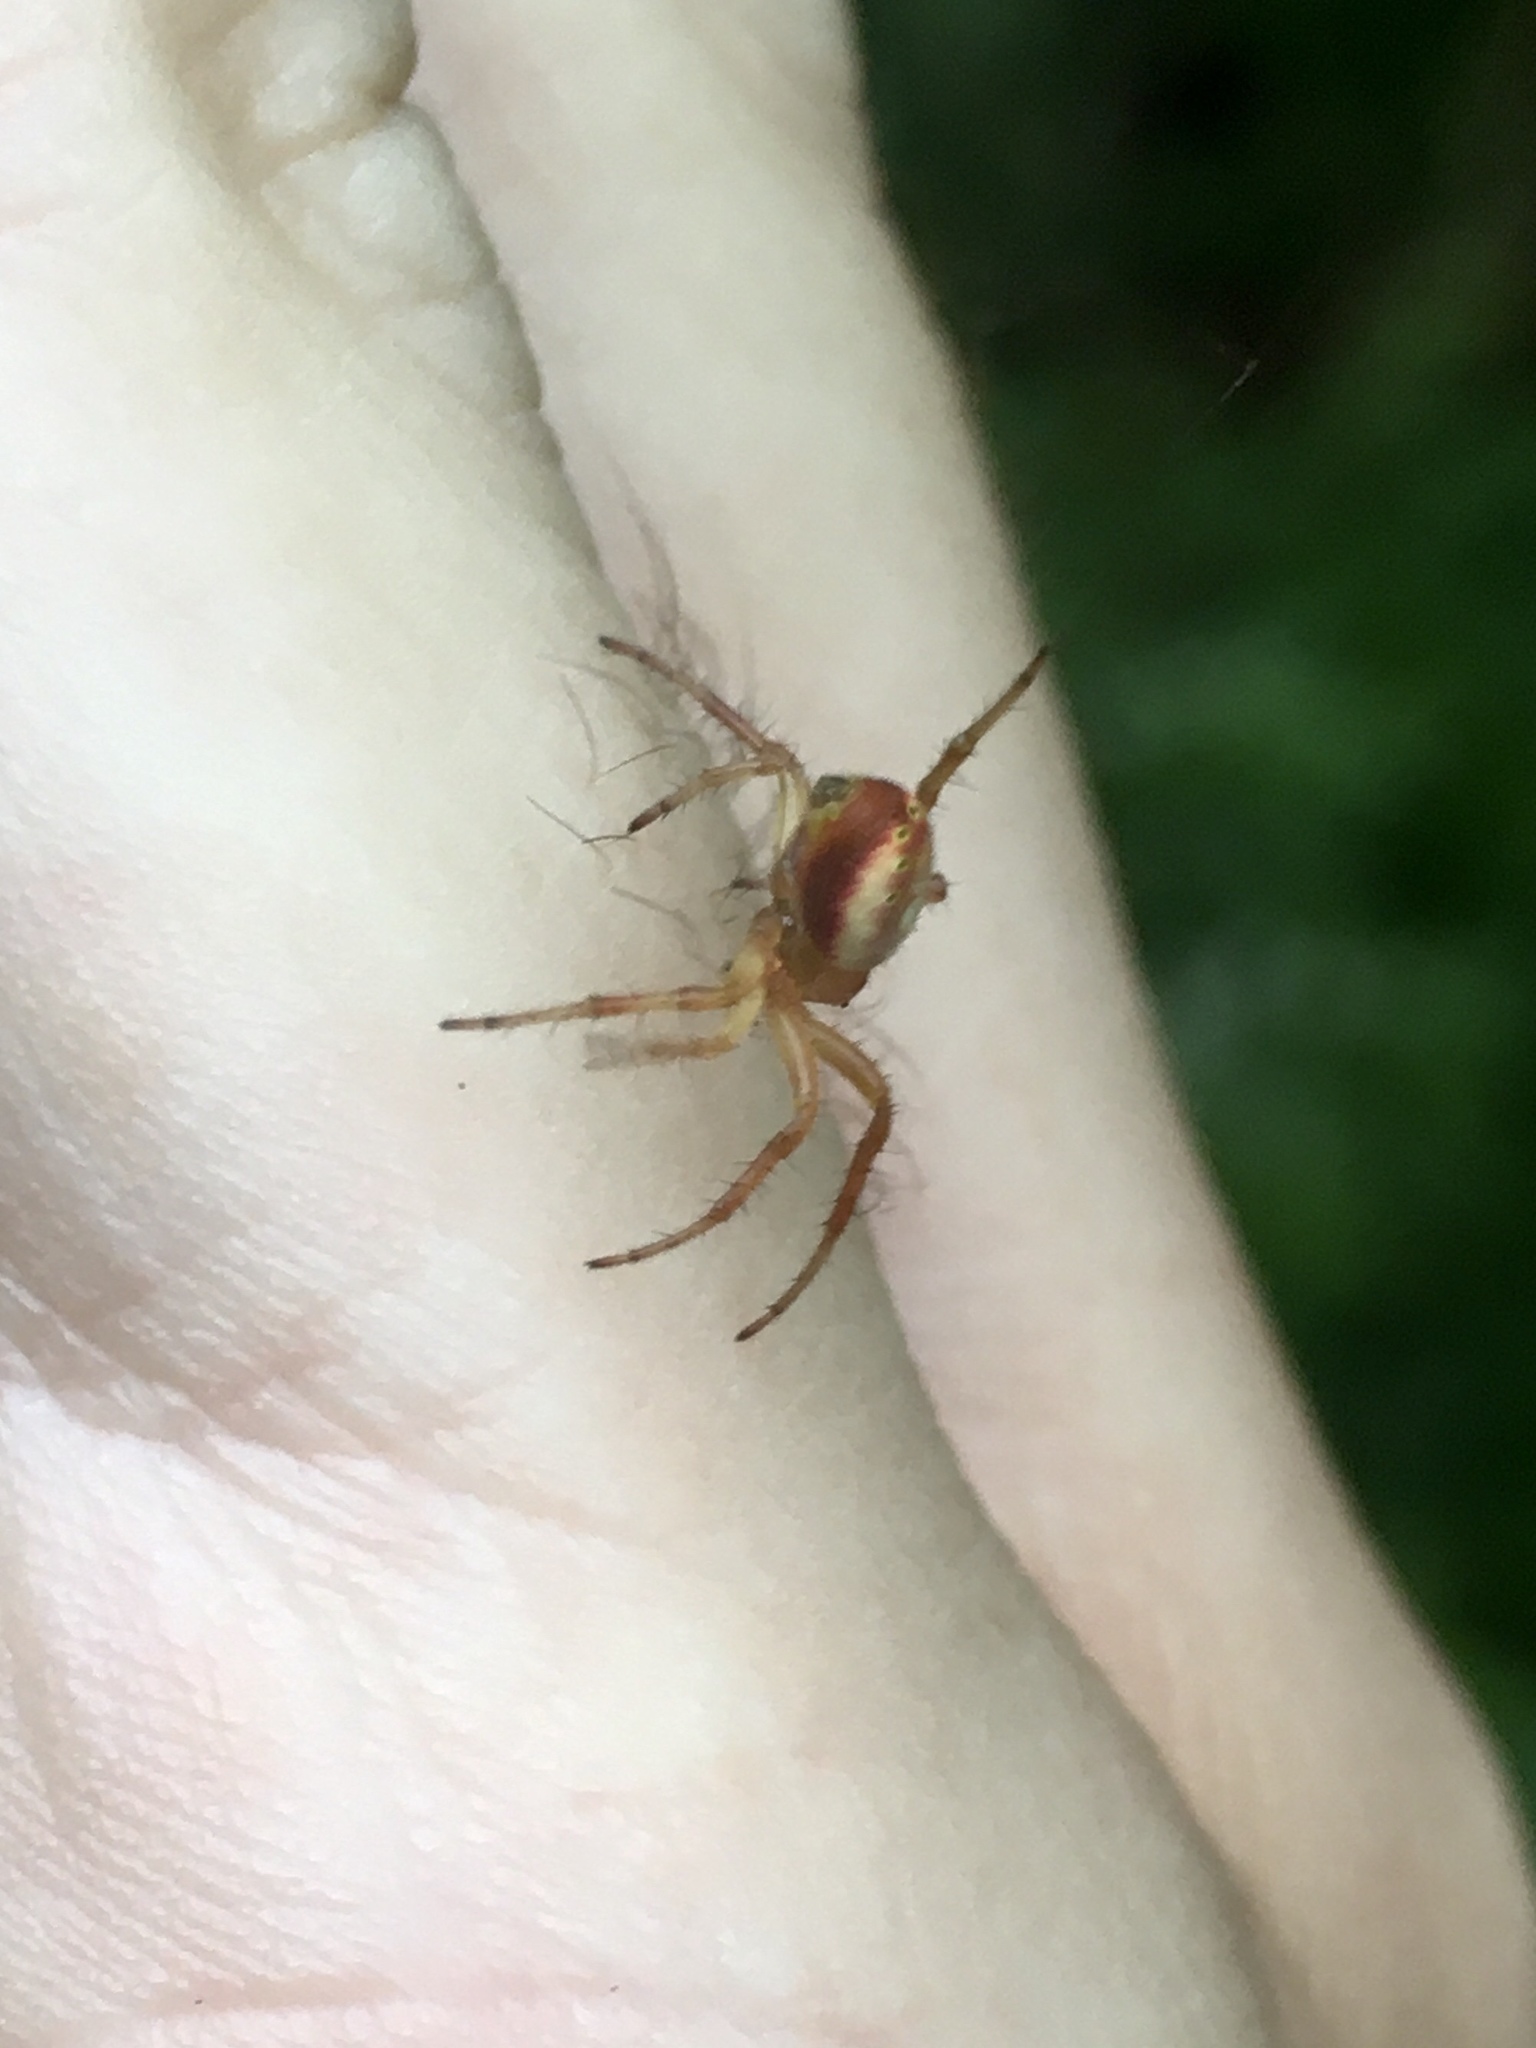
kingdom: Animalia
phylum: Arthropoda
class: Arachnida
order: Araneae
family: Araneidae
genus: Araniella
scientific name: Araniella displicata
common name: Sixspotted orb weaver
